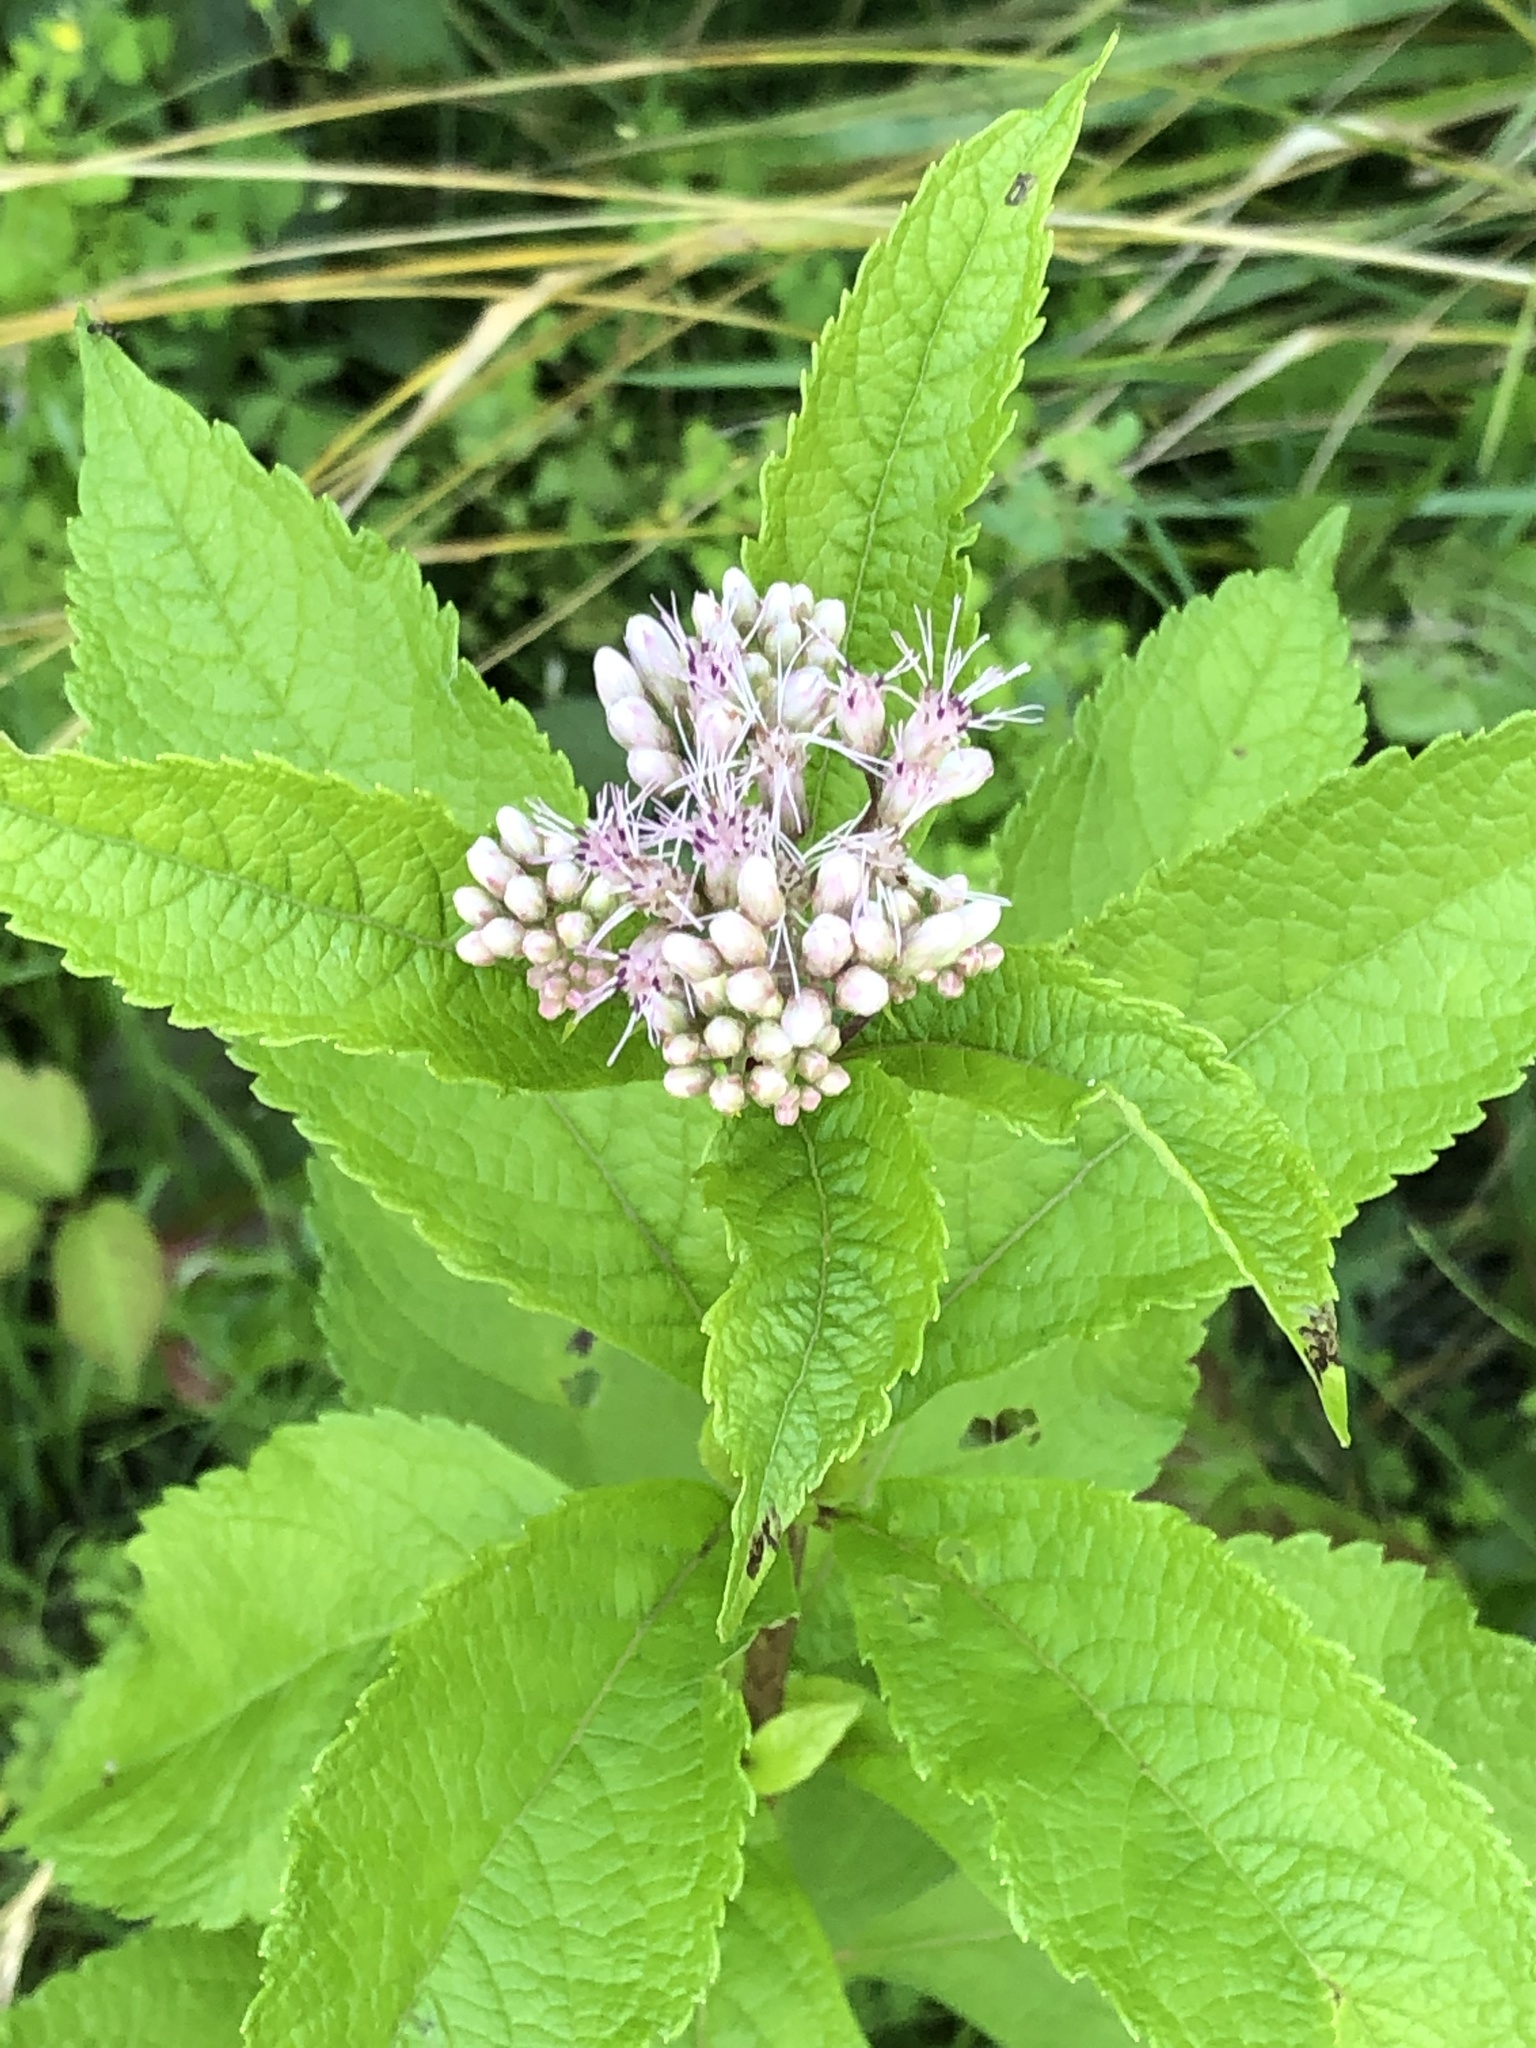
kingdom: Plantae
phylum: Tracheophyta
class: Magnoliopsida
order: Asterales
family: Asteraceae
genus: Eutrochium
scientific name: Eutrochium maculatum
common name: Spotted joe pye weed
